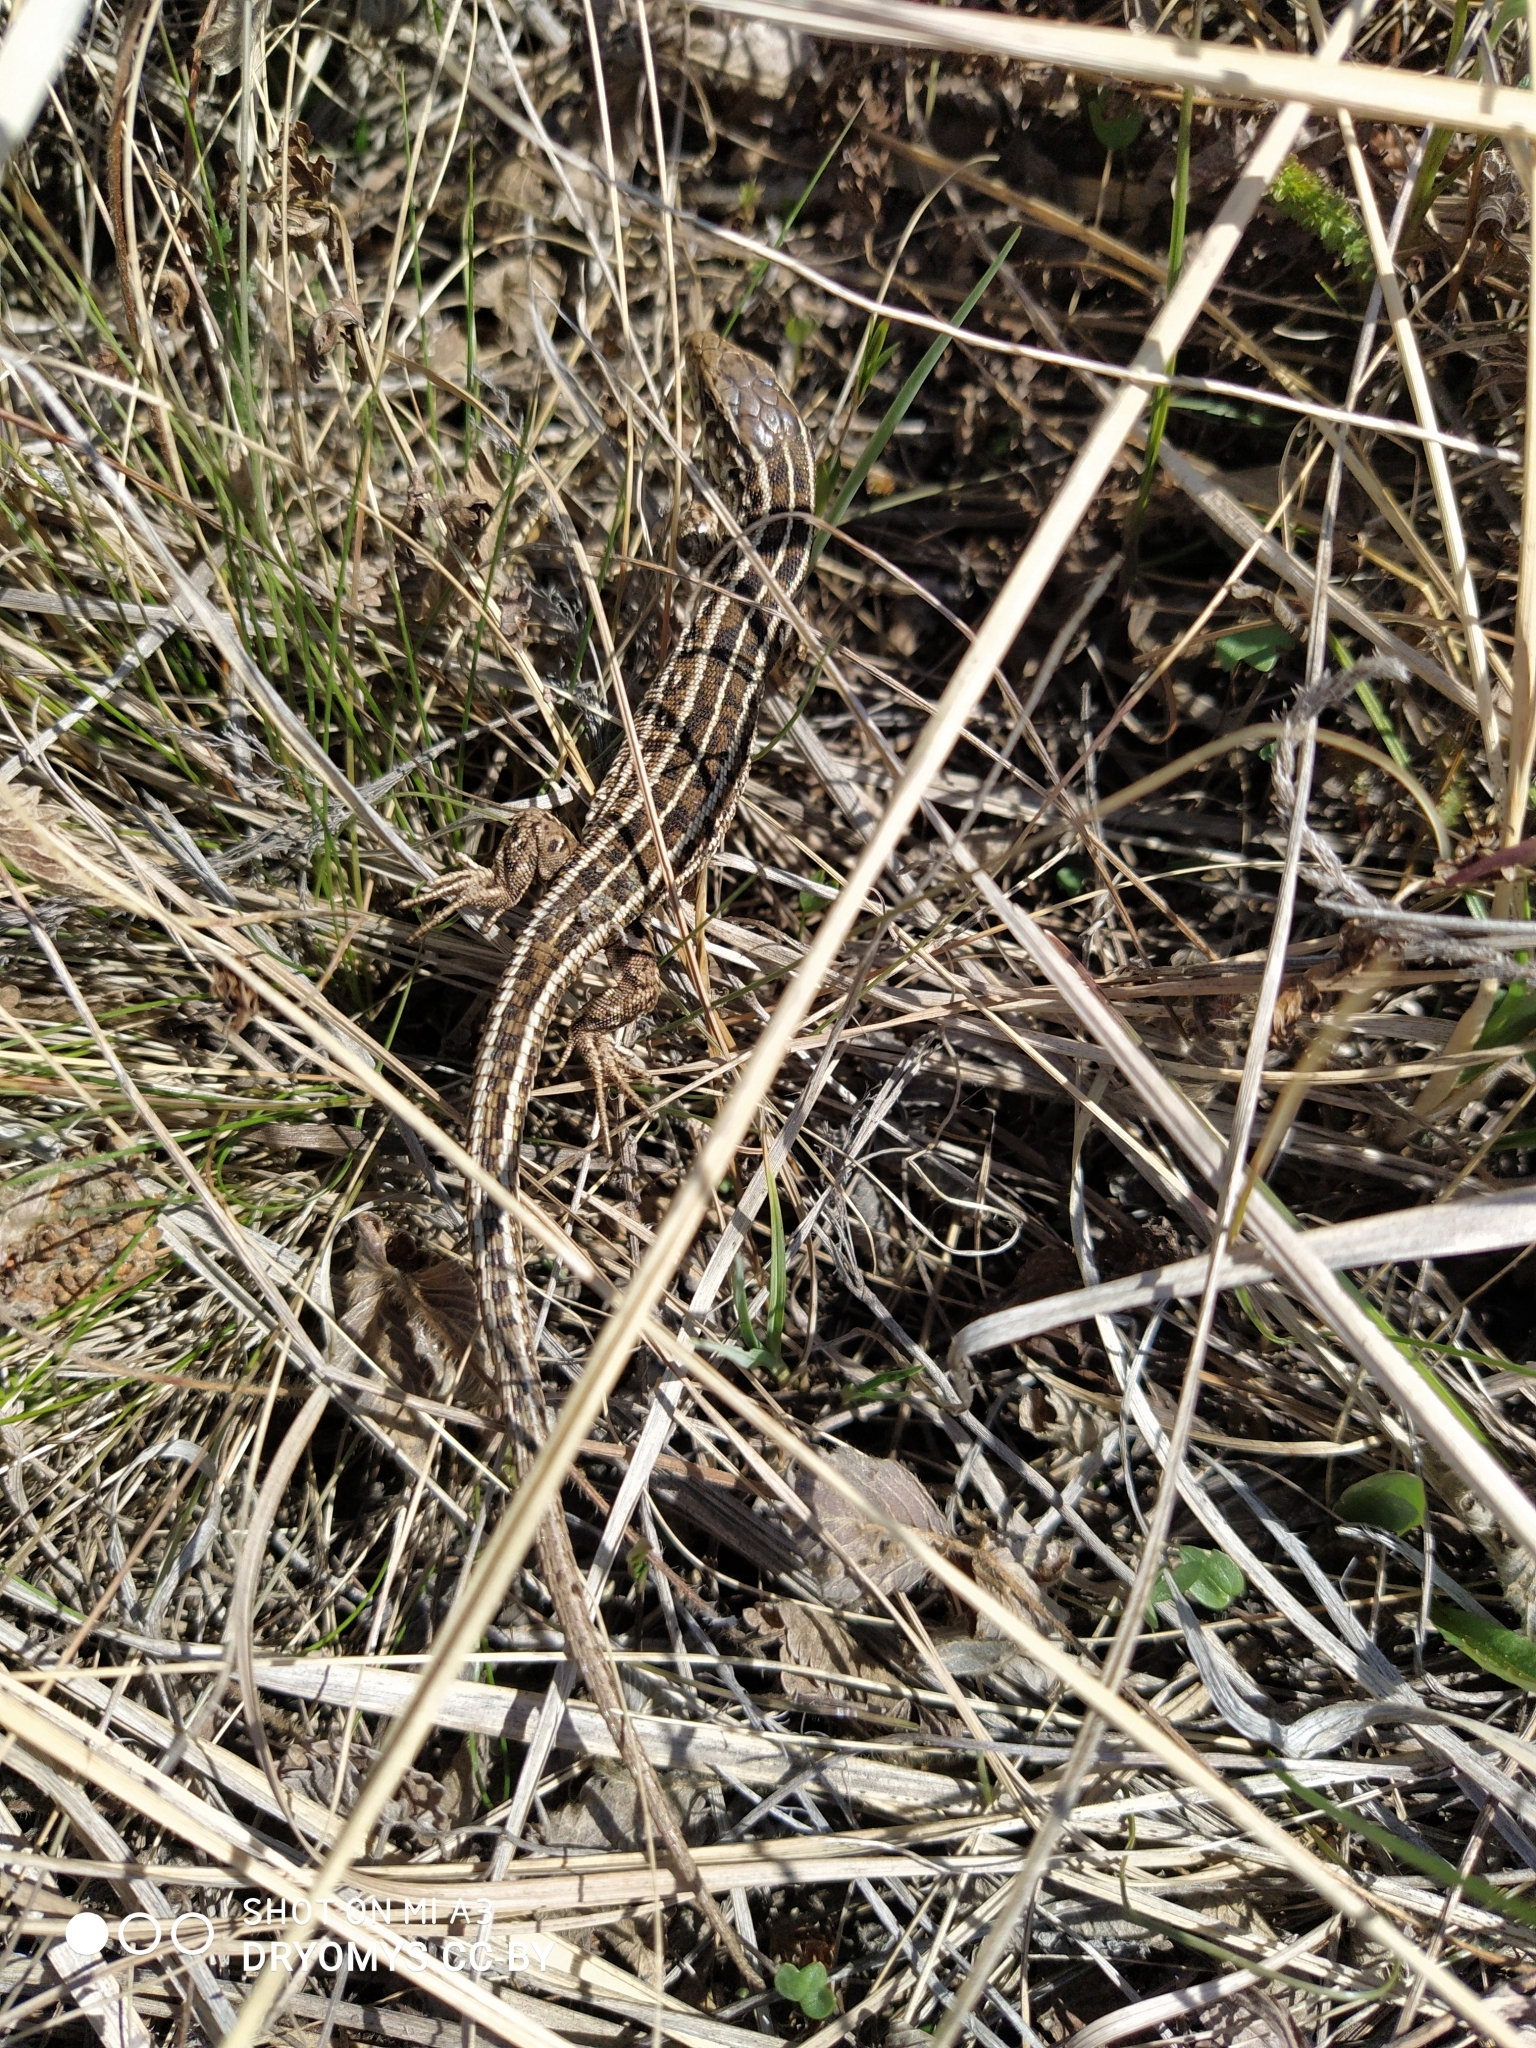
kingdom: Animalia
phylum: Chordata
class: Squamata
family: Lacertidae
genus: Lacerta
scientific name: Lacerta agilis
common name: Sand lizard
